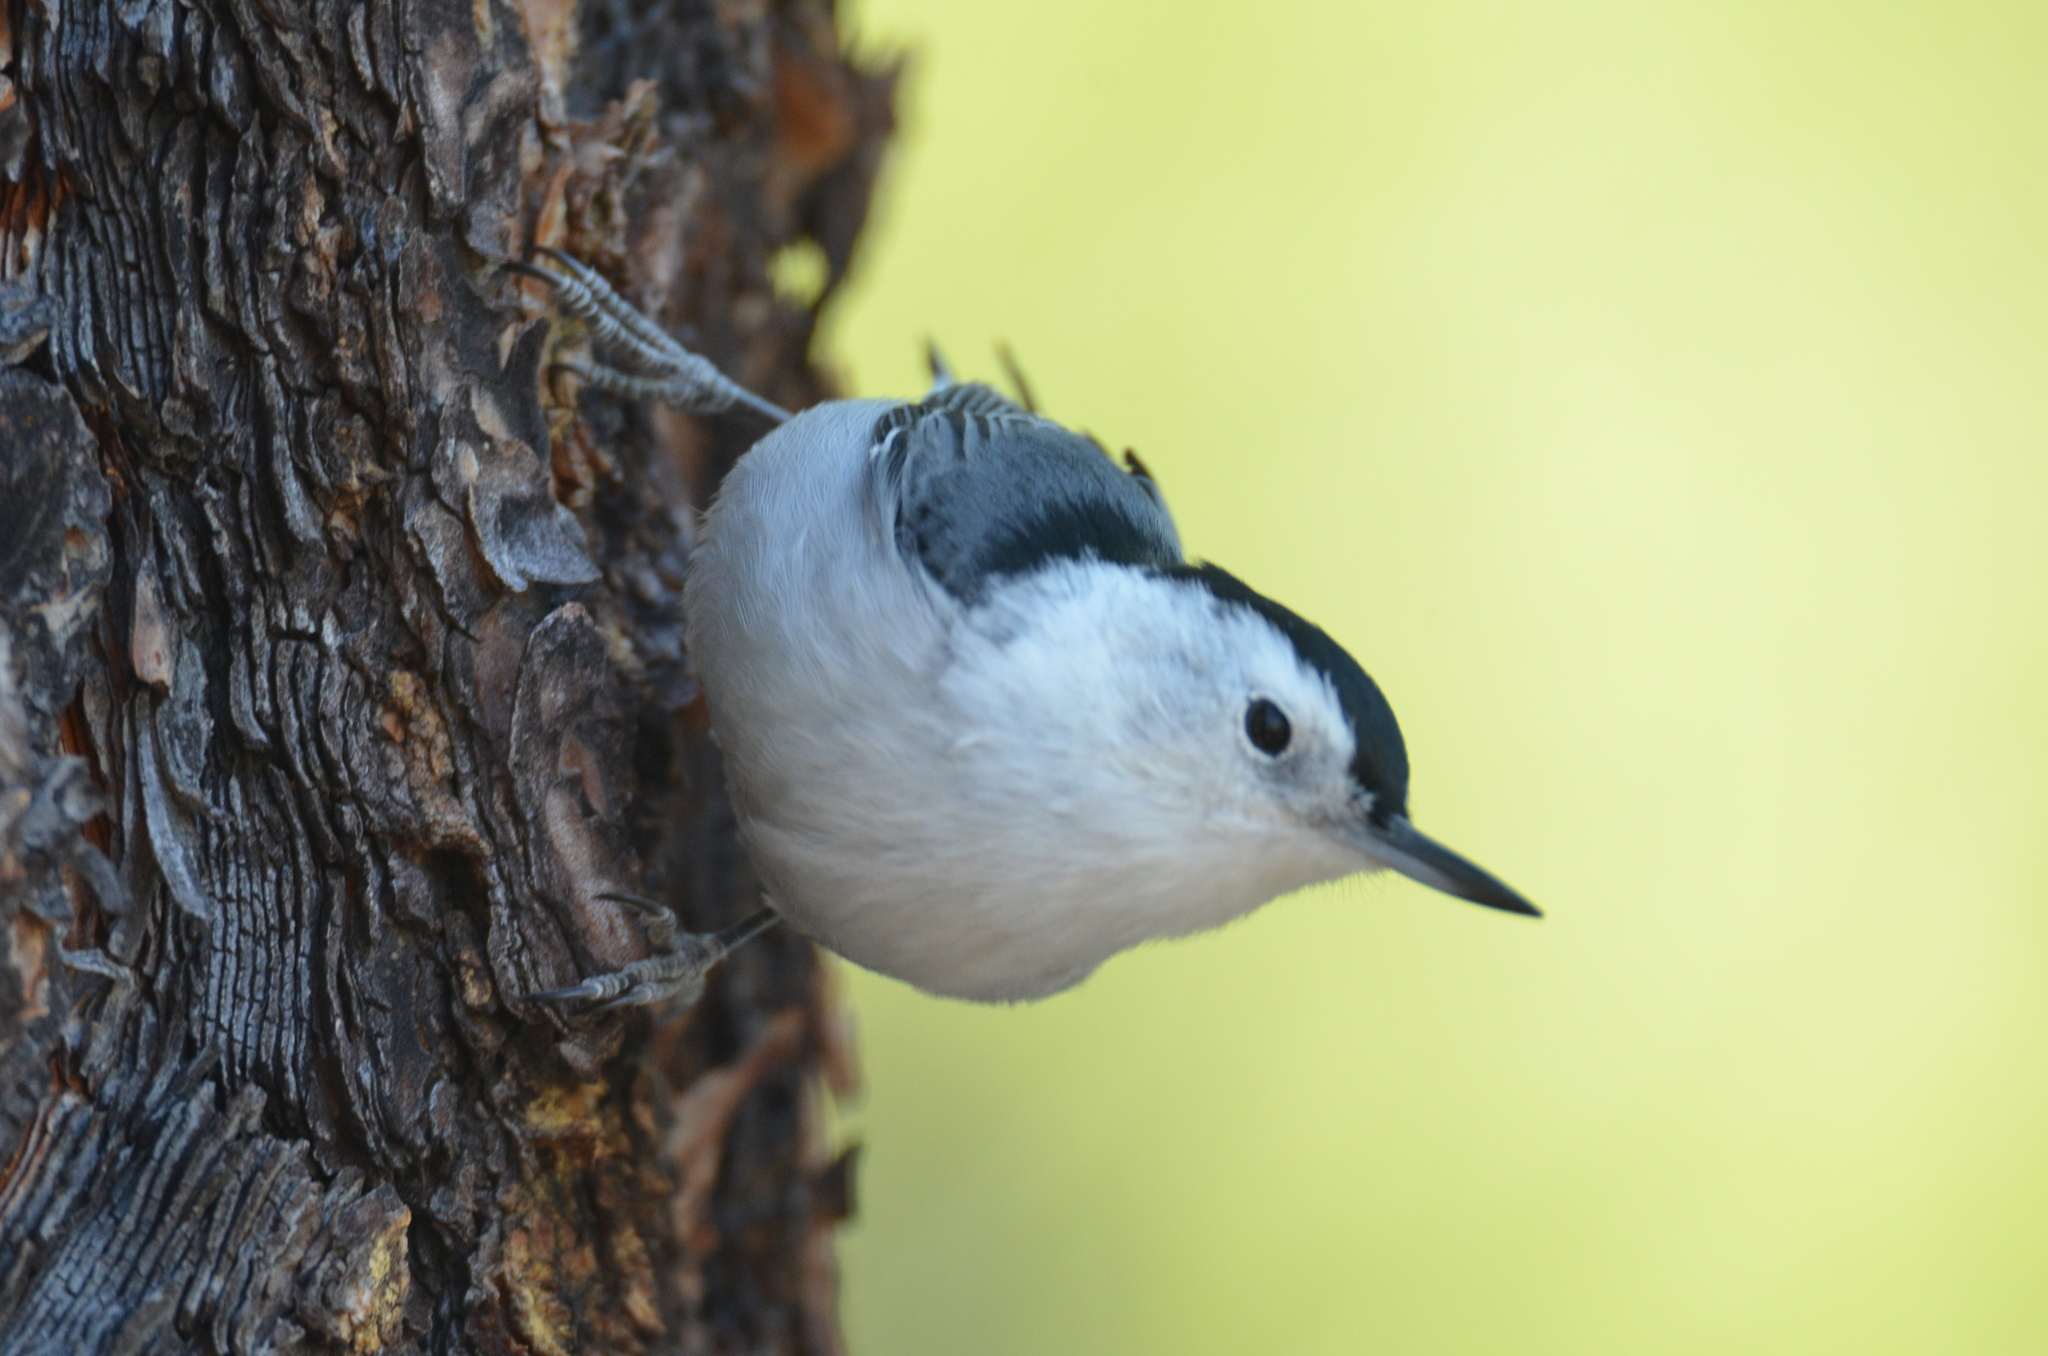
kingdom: Animalia
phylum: Chordata
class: Aves
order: Passeriformes
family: Sittidae
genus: Sitta
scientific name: Sitta carolinensis
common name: White-breasted nuthatch
